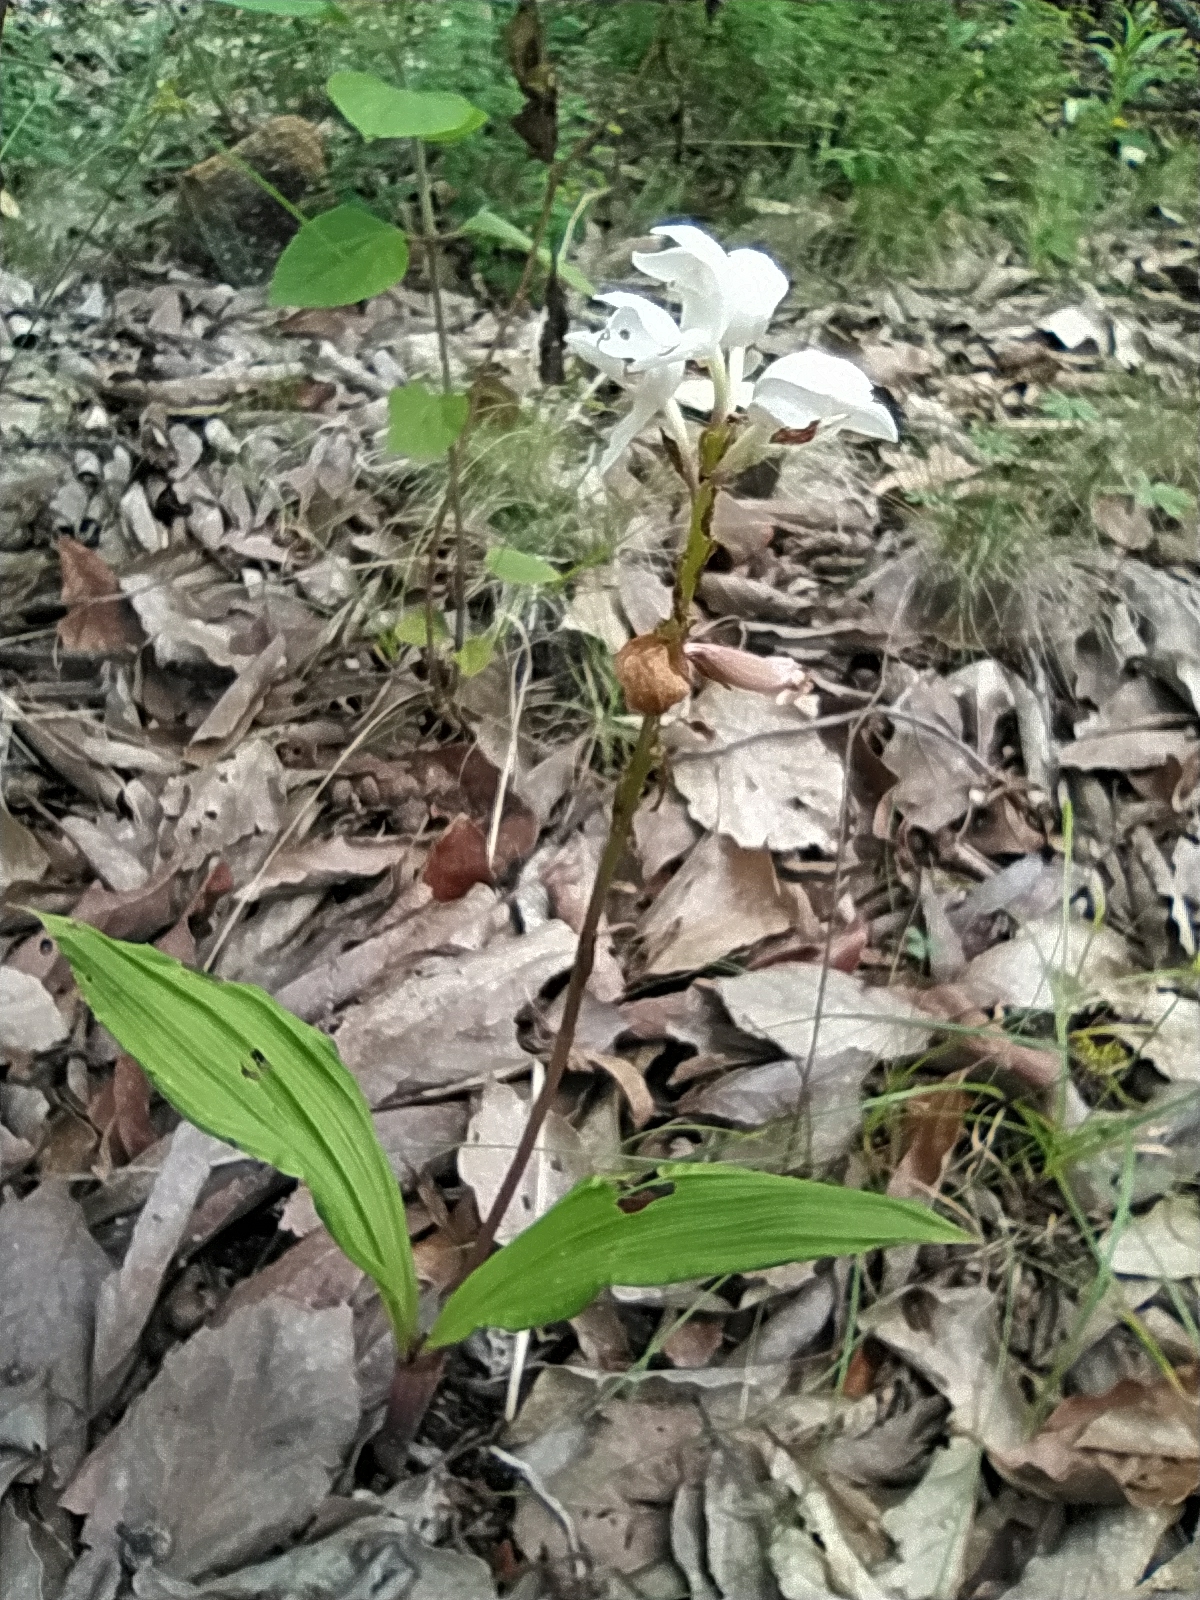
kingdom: Plantae
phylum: Tracheophyta
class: Liliopsida
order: Asparagales
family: Orchidaceae
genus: Govenia
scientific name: Govenia liliacea
